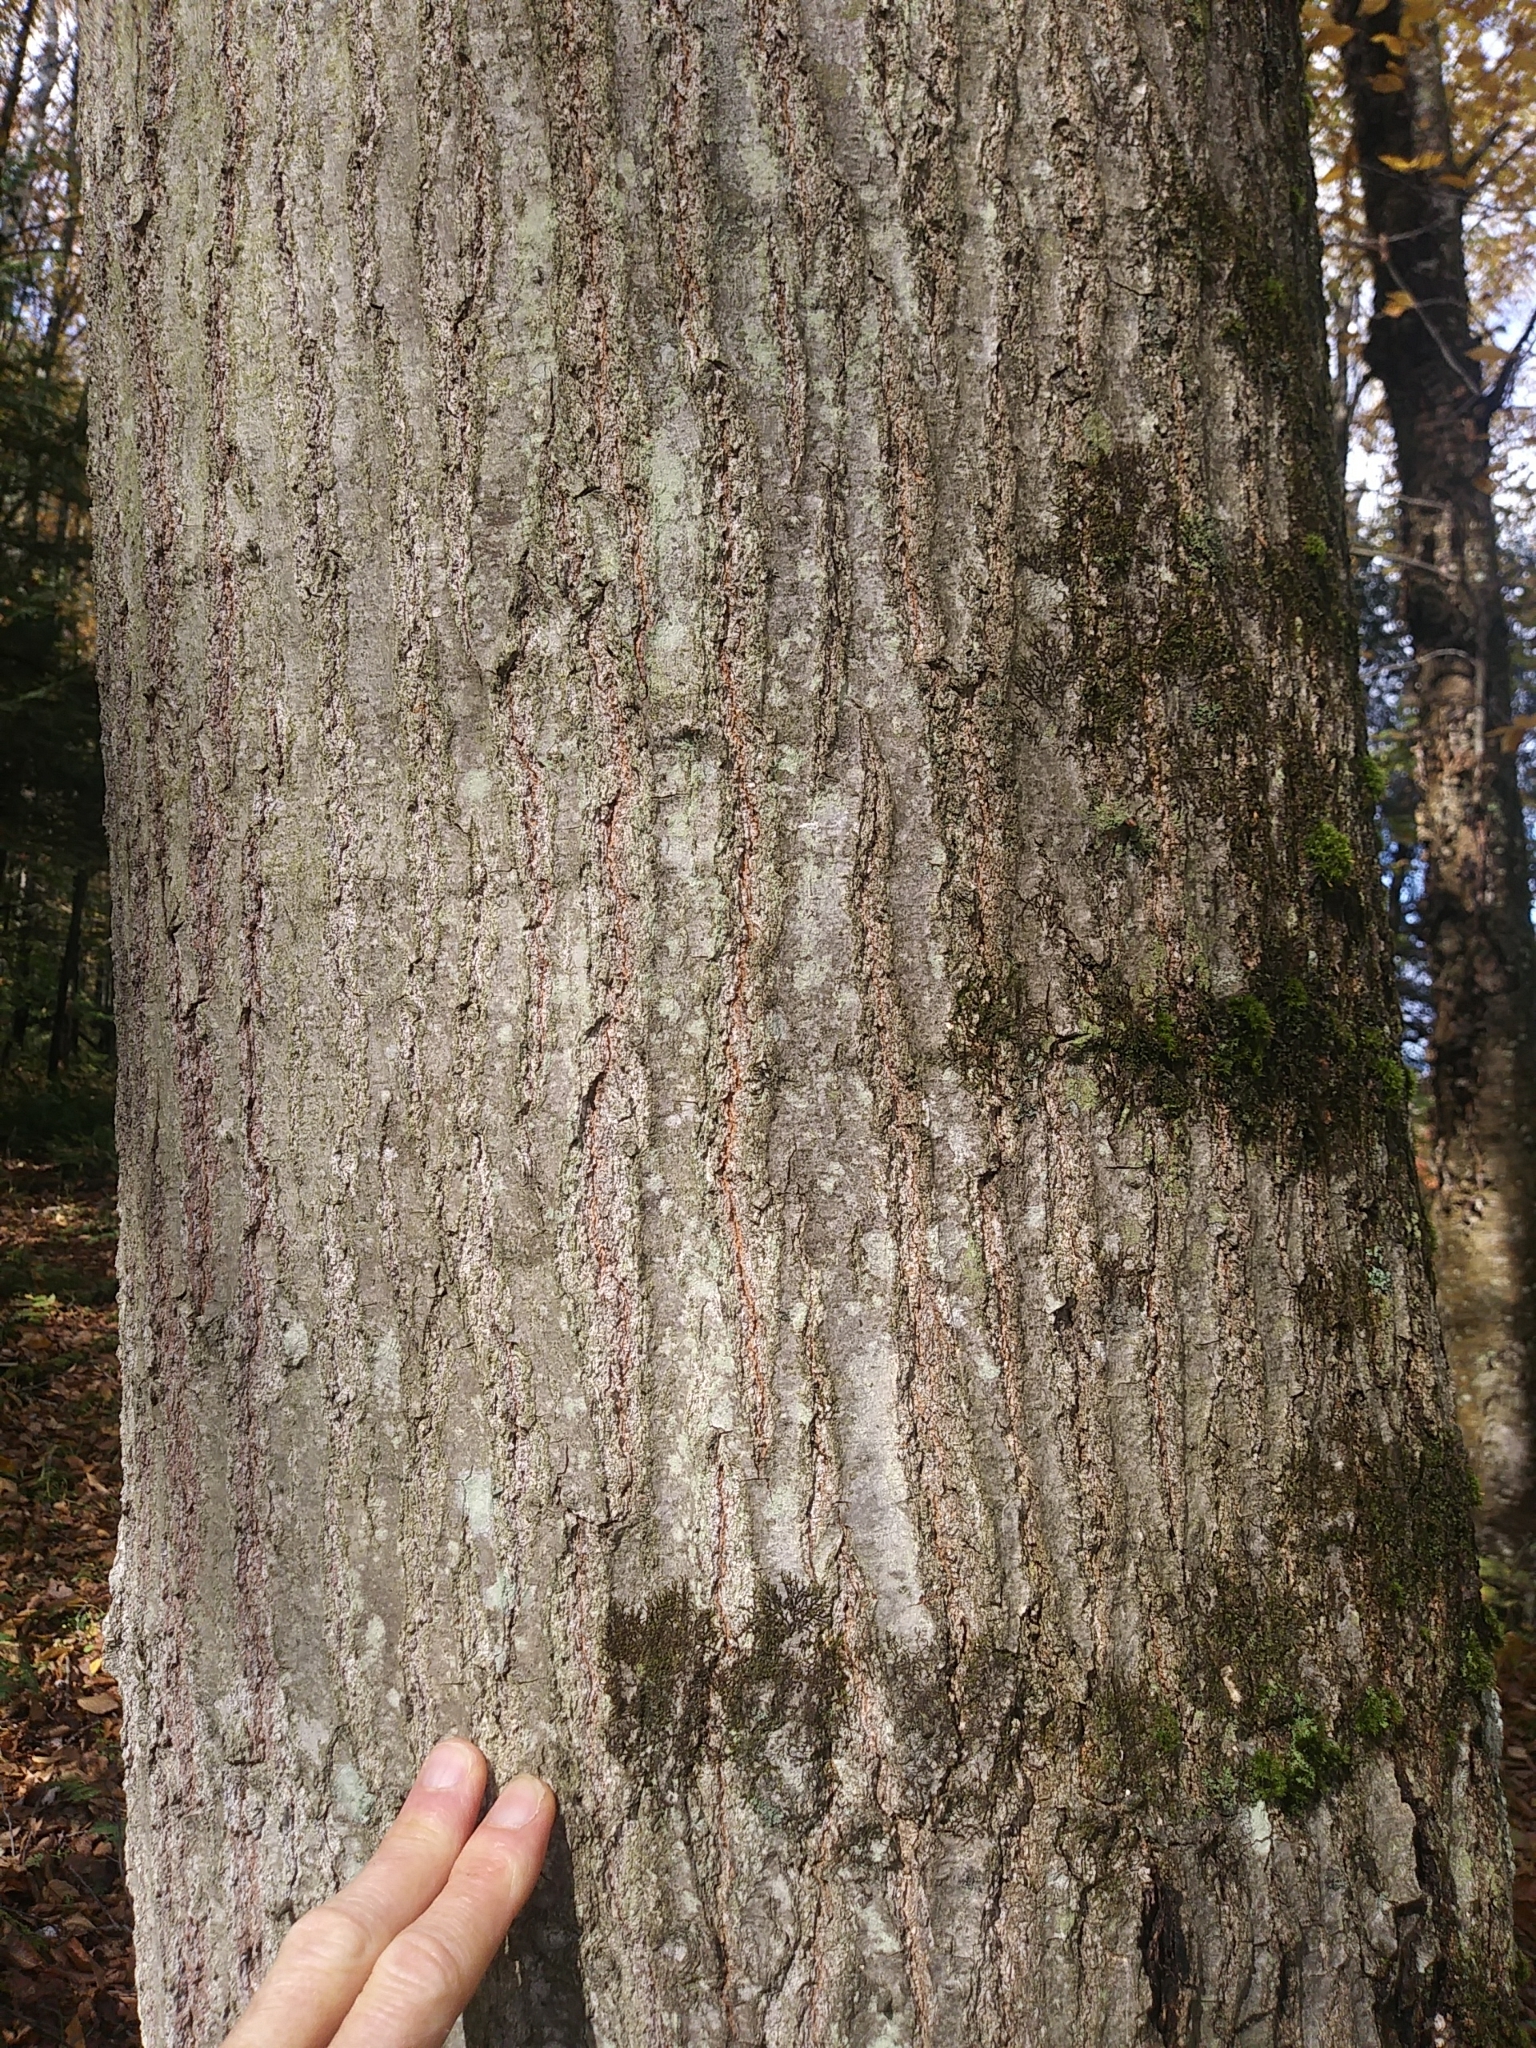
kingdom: Plantae
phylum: Tracheophyta
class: Magnoliopsida
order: Fagales
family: Fagaceae
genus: Quercus
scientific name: Quercus rubra
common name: Red oak
